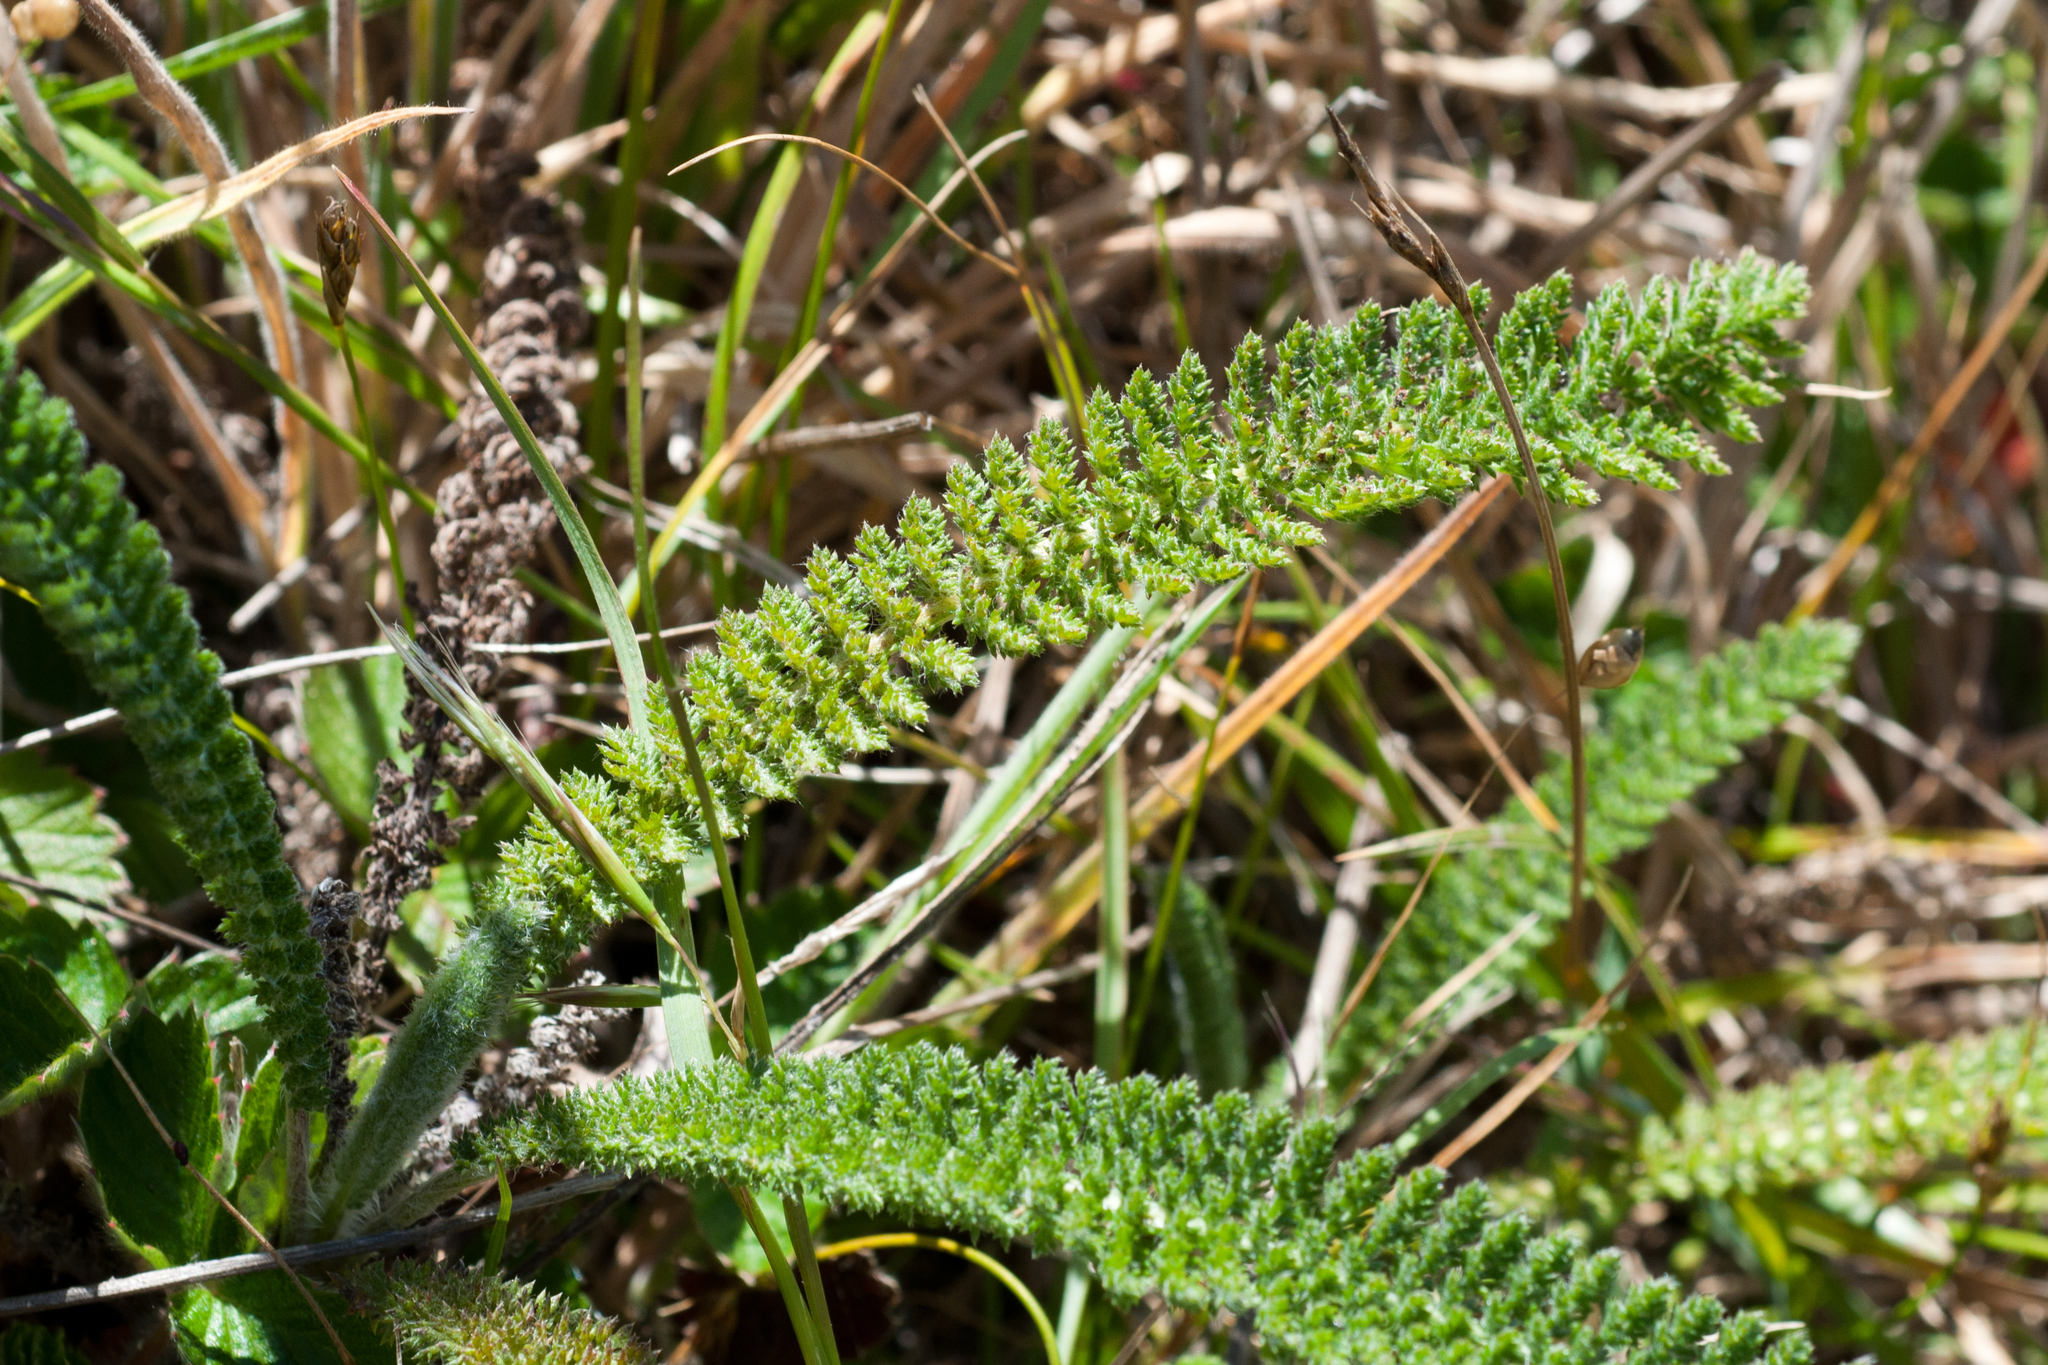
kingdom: Plantae
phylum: Tracheophyta
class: Magnoliopsida
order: Asterales
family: Asteraceae
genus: Achillea
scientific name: Achillea millefolium
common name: Yarrow
